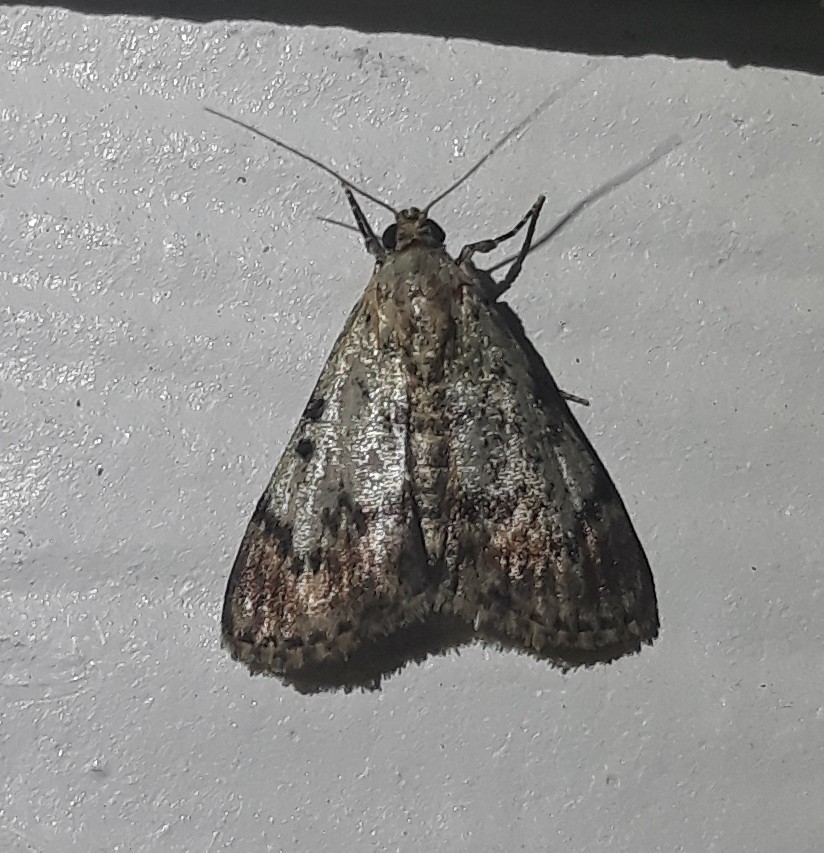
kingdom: Animalia
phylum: Arthropoda
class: Insecta
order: Lepidoptera
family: Pyralidae
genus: Epipaschia
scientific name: Epipaschia superatalis
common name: Dimorphic macalla moth
